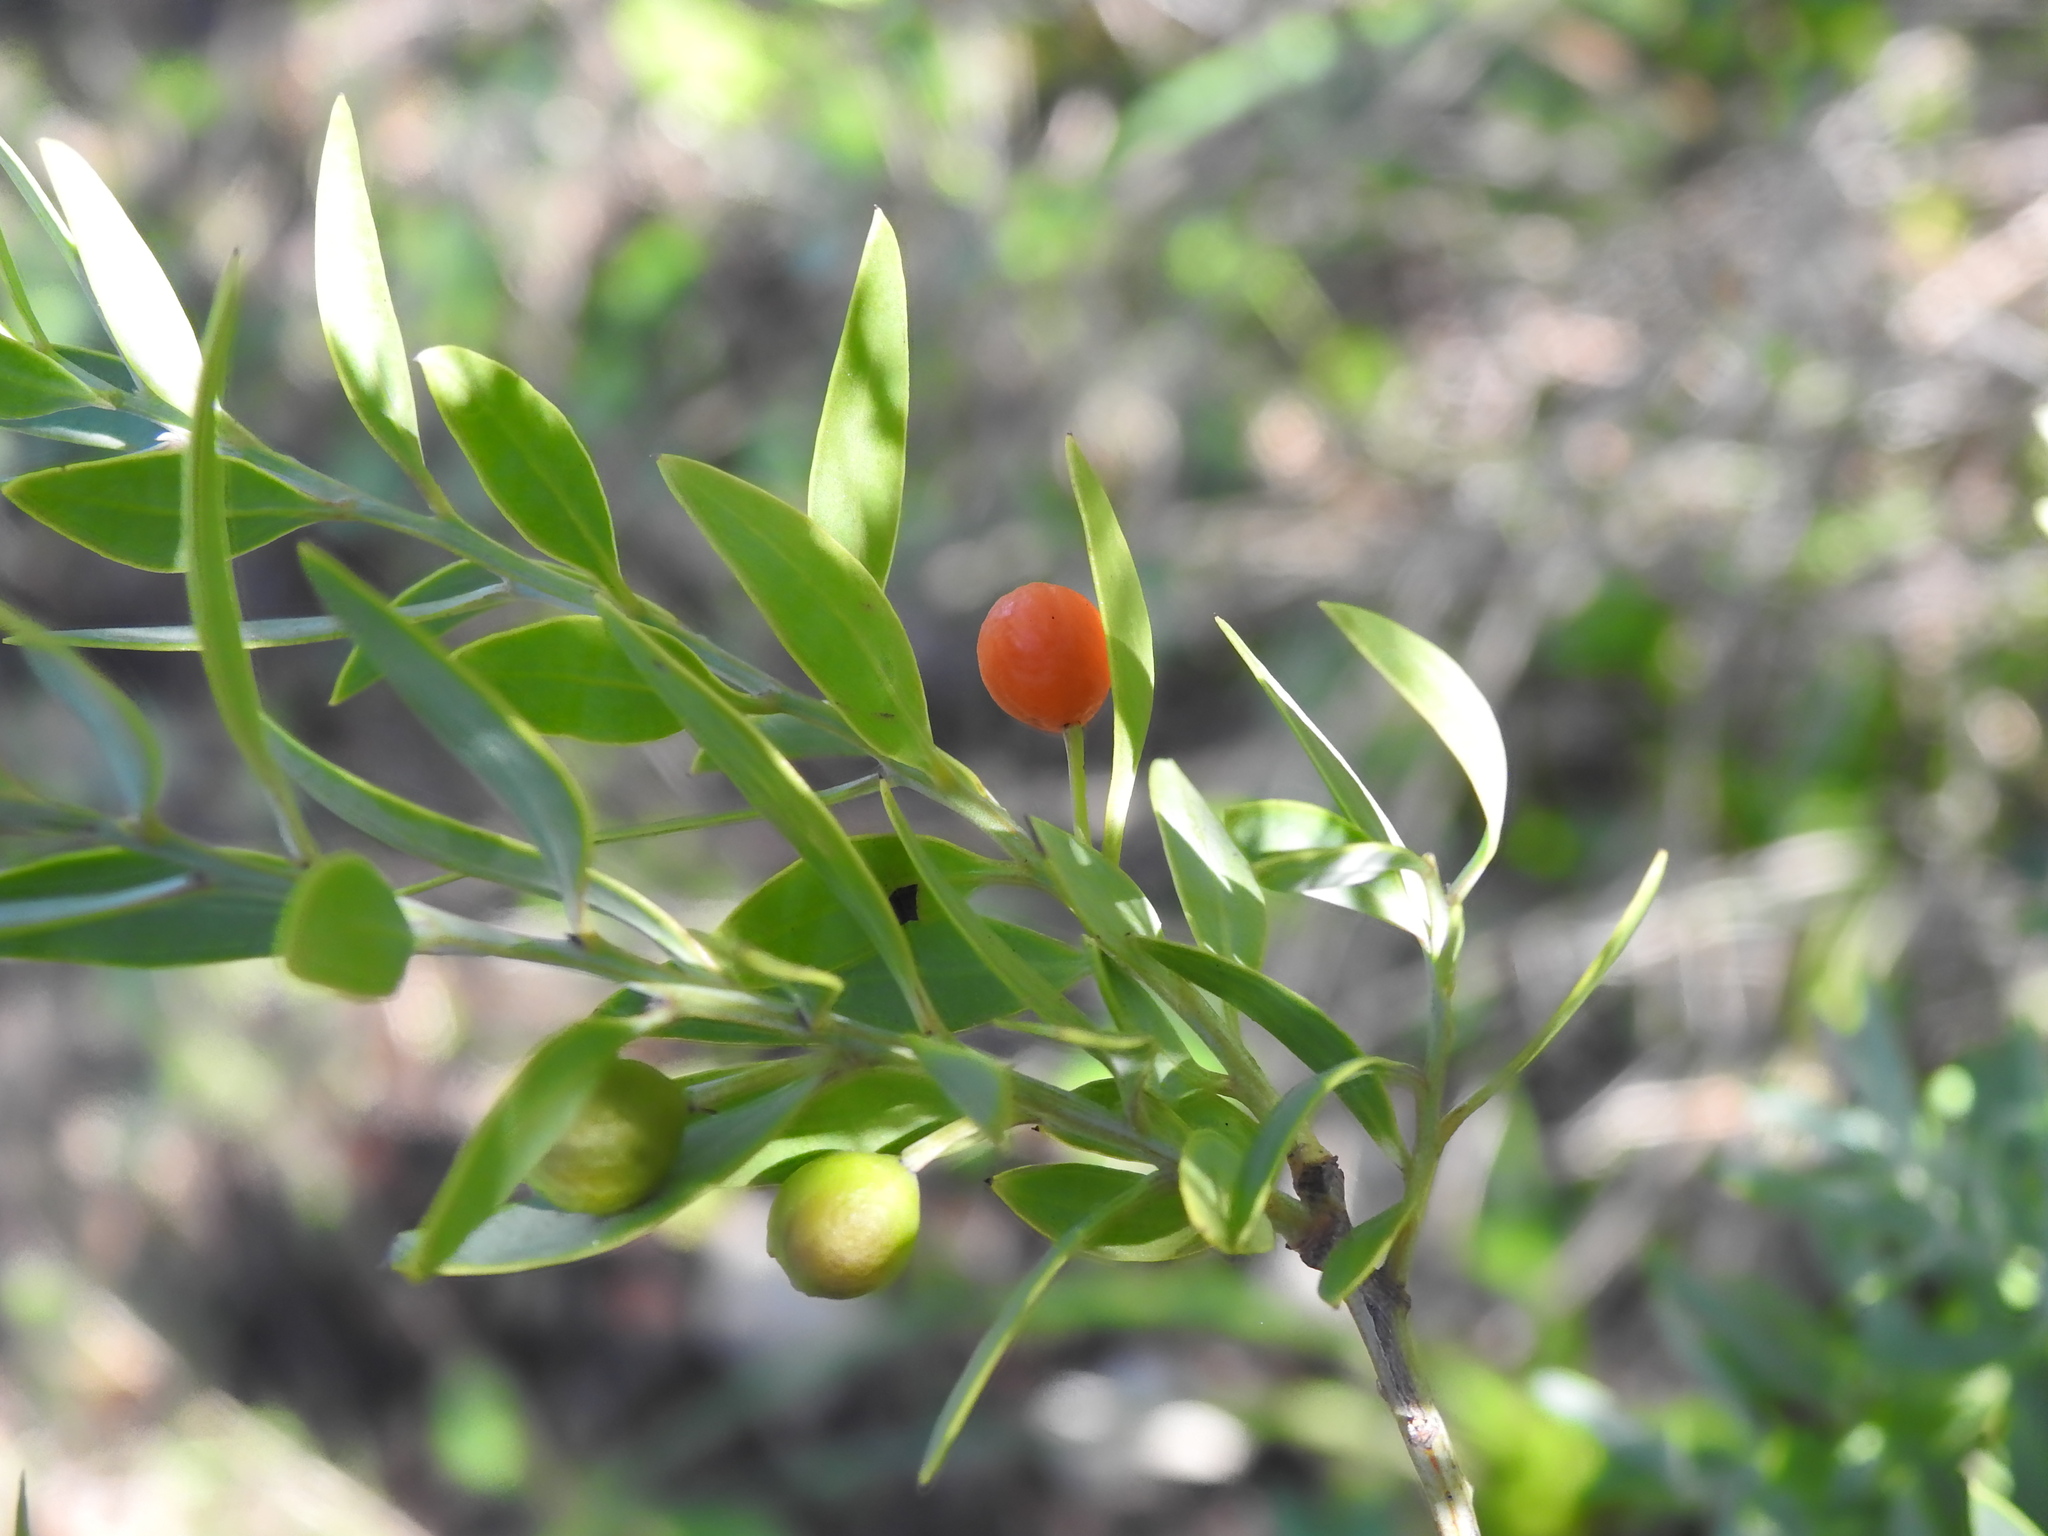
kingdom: Plantae
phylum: Tracheophyta
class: Magnoliopsida
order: Santalales
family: Santalaceae
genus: Osyris
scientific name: Osyris lanceolata
